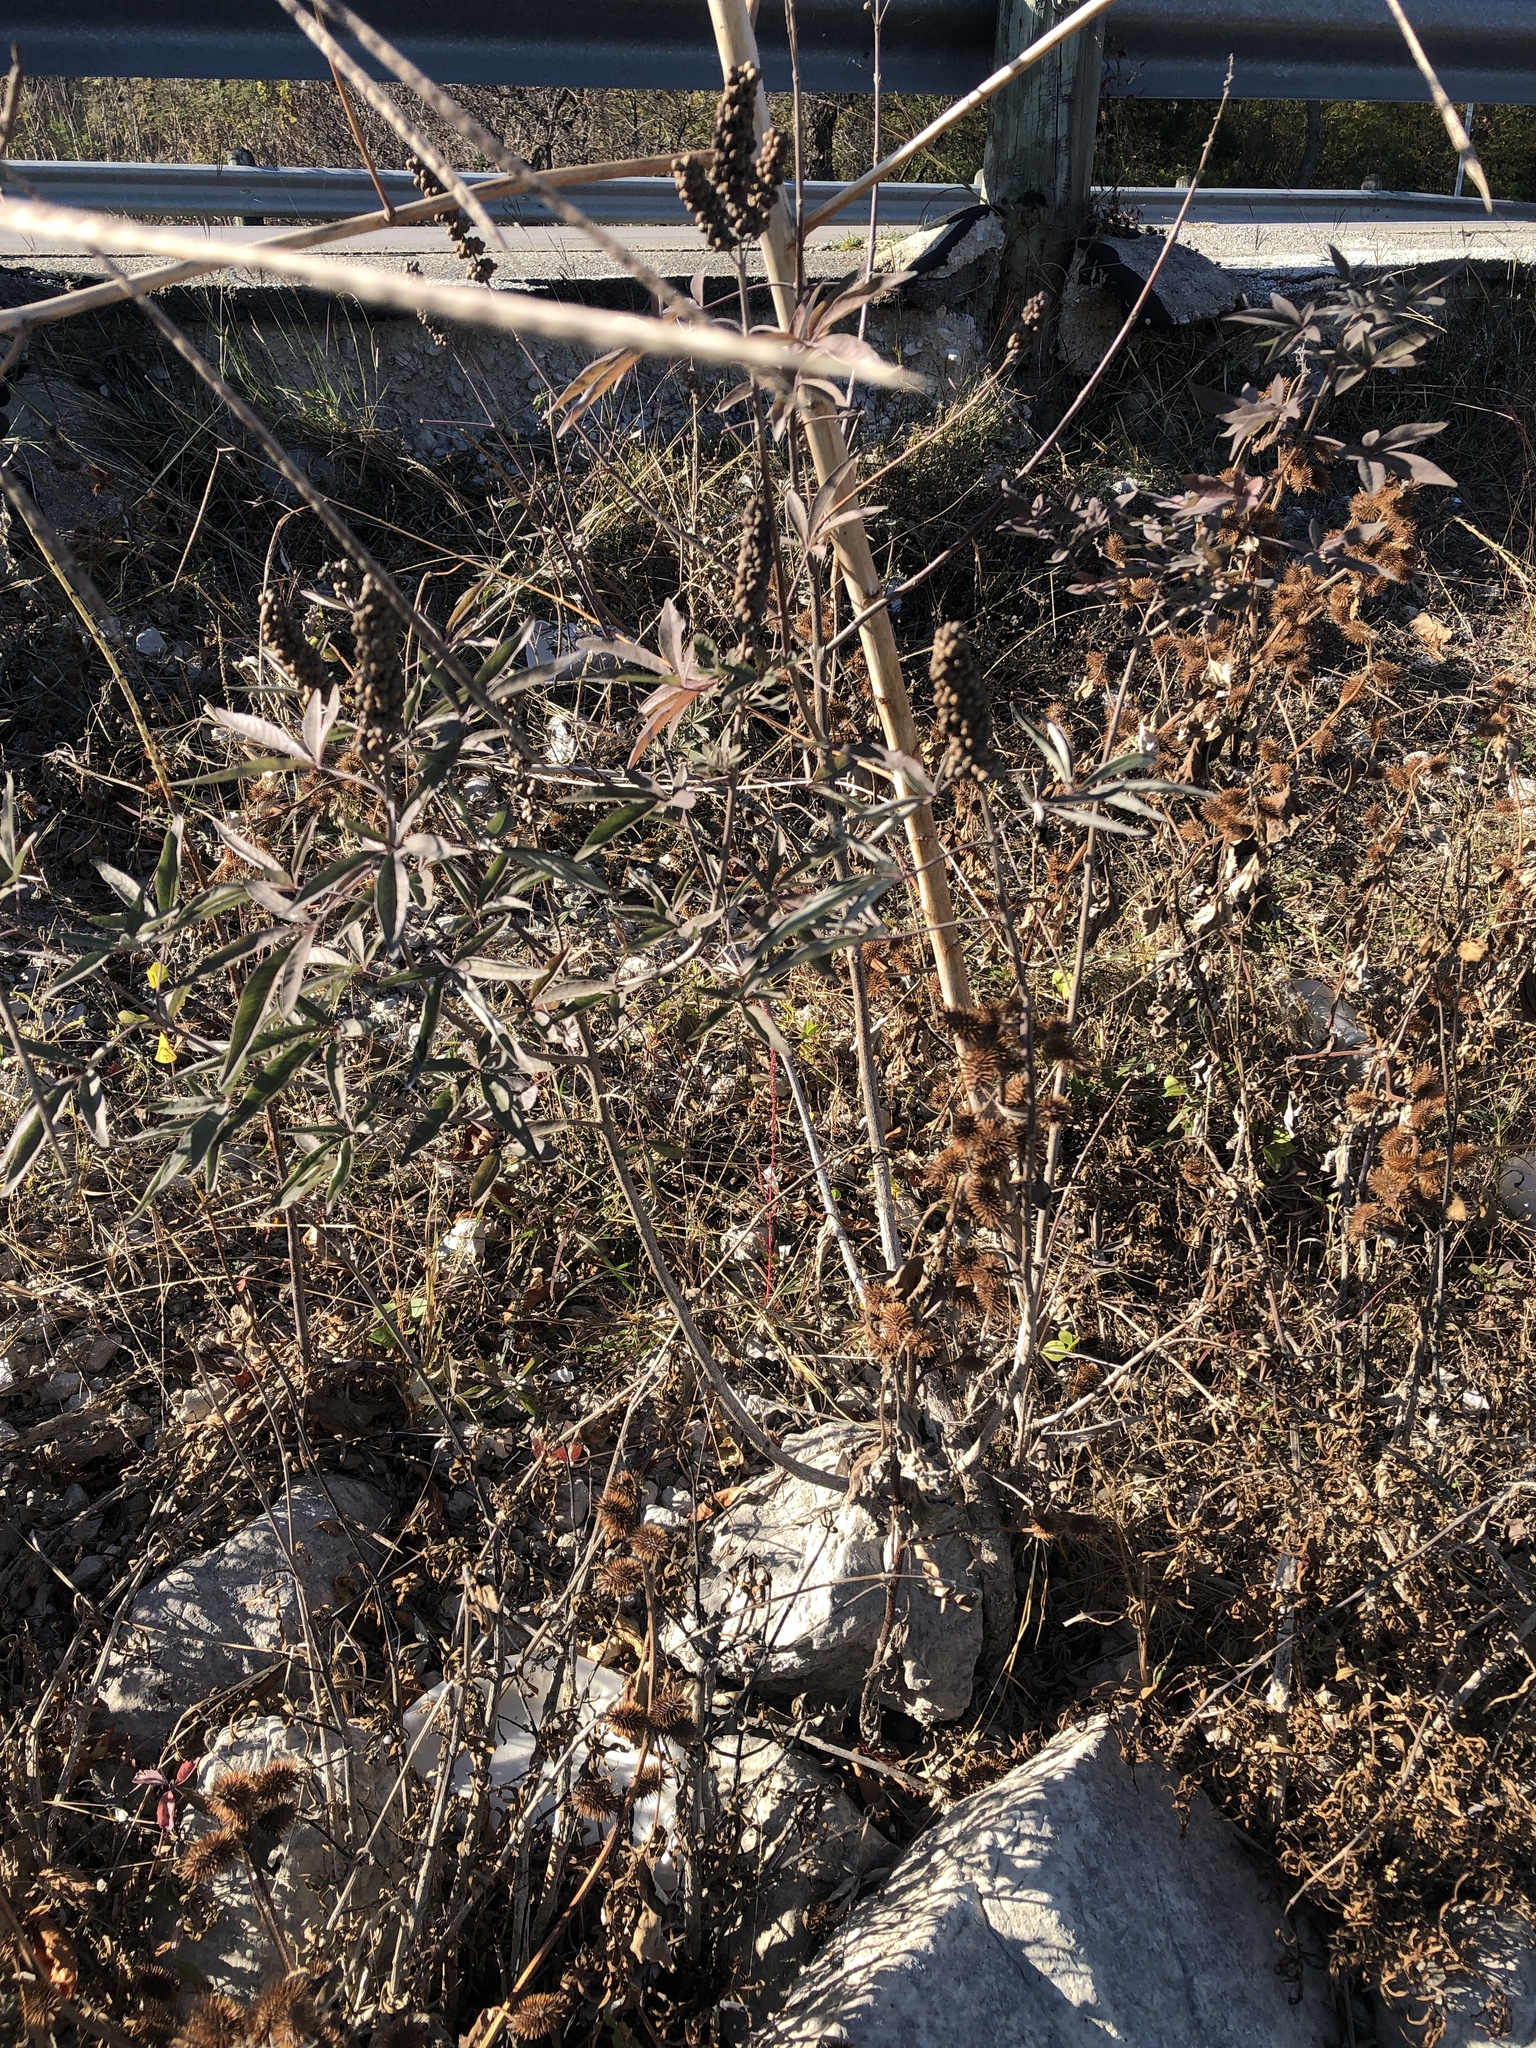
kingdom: Plantae
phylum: Tracheophyta
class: Magnoliopsida
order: Lamiales
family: Lamiaceae
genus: Vitex
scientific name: Vitex agnus-castus
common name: Chasteberry
